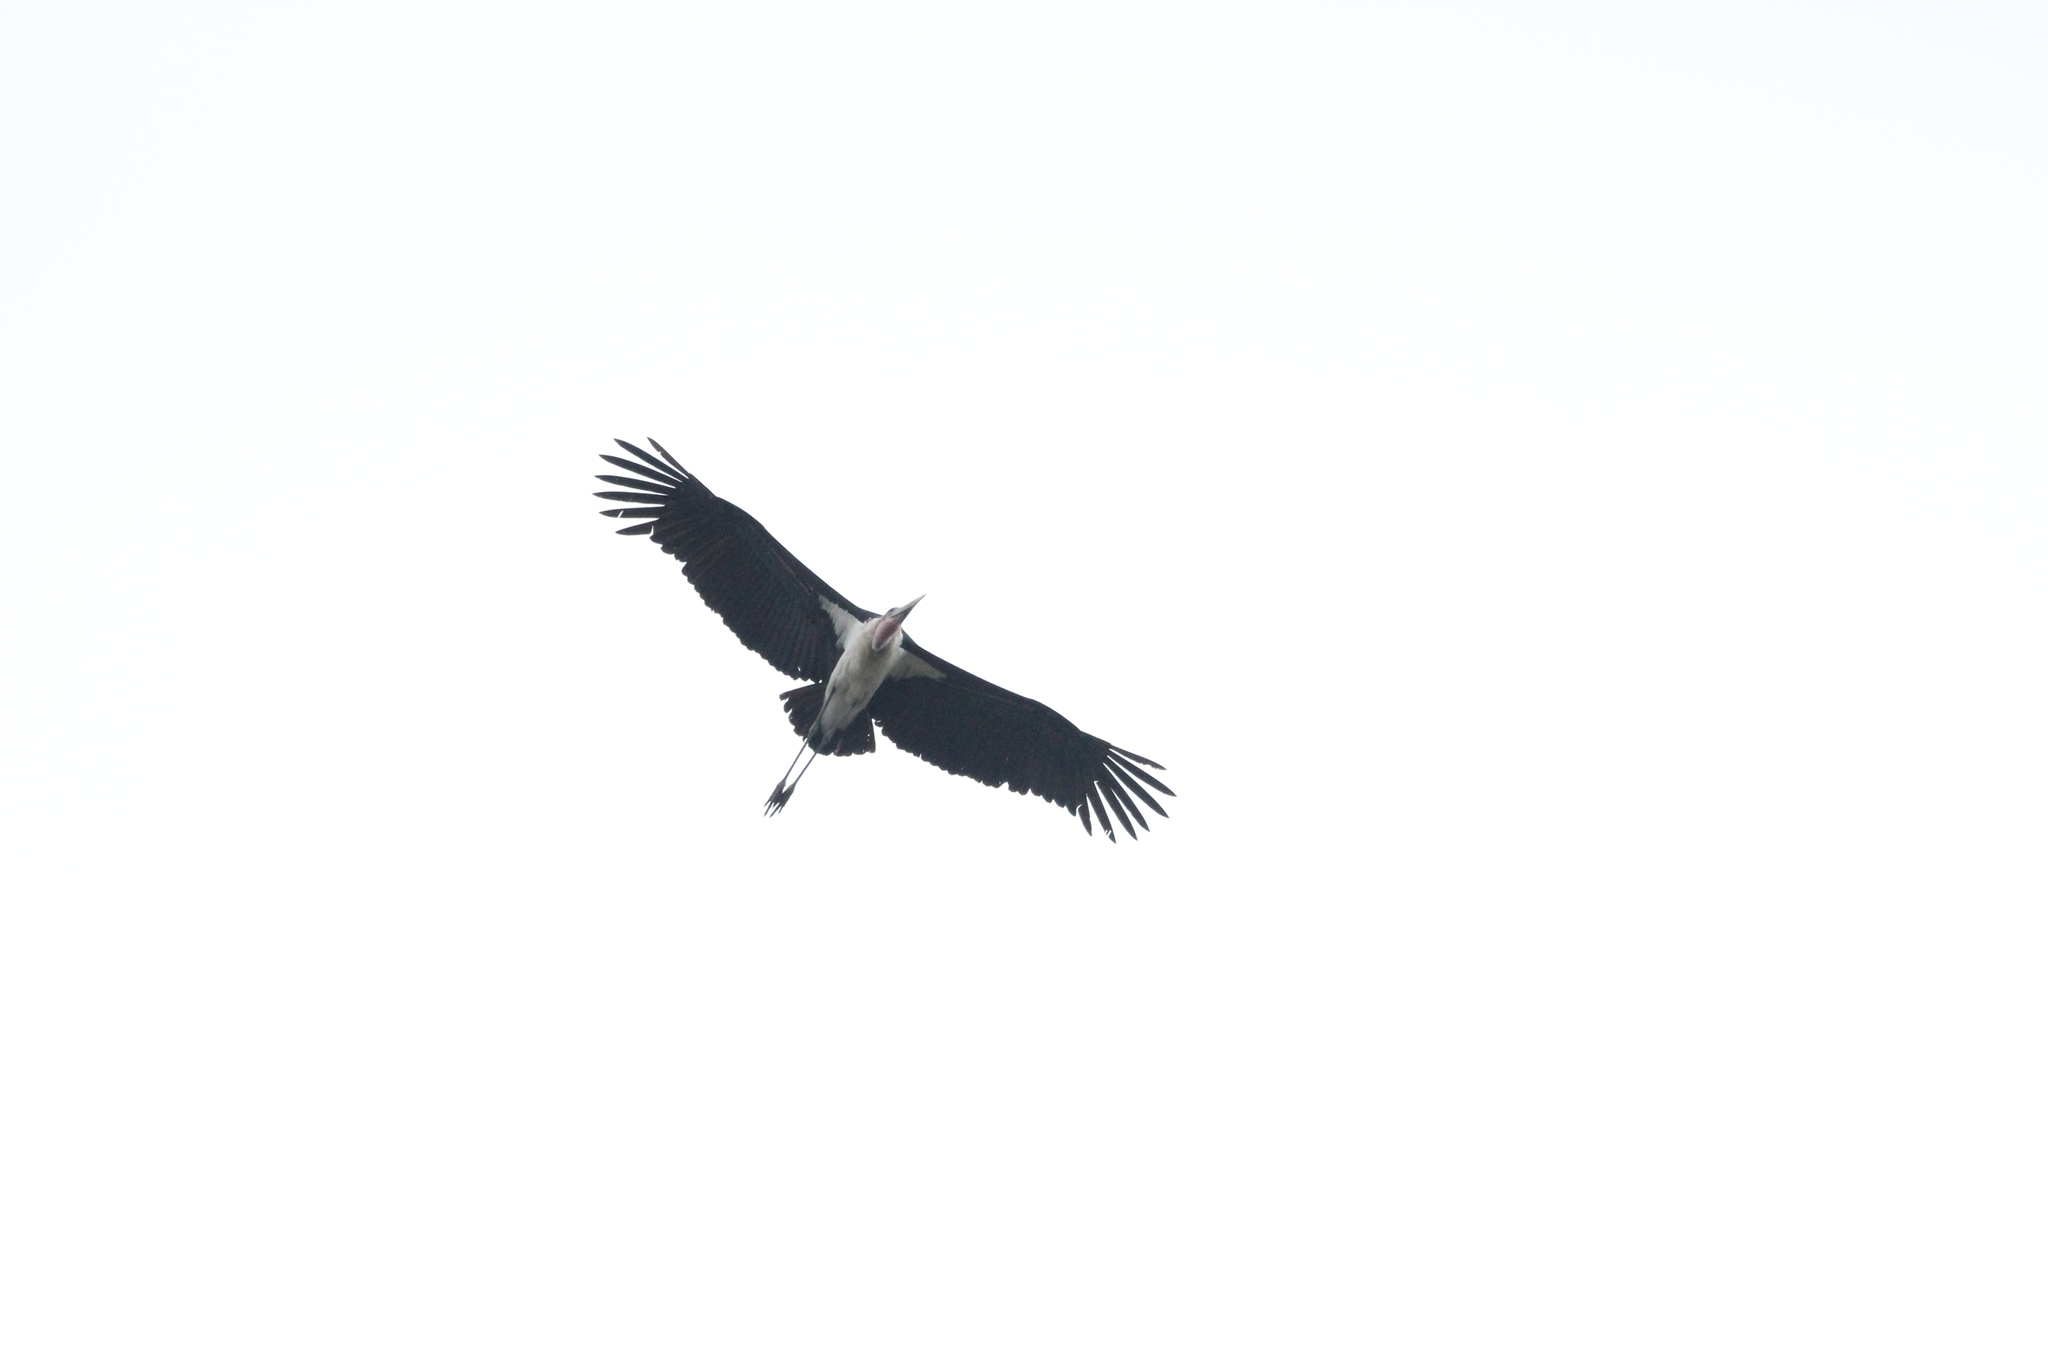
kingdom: Animalia
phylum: Chordata
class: Aves
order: Ciconiiformes
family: Ciconiidae
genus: Leptoptilos
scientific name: Leptoptilos crumenifer
